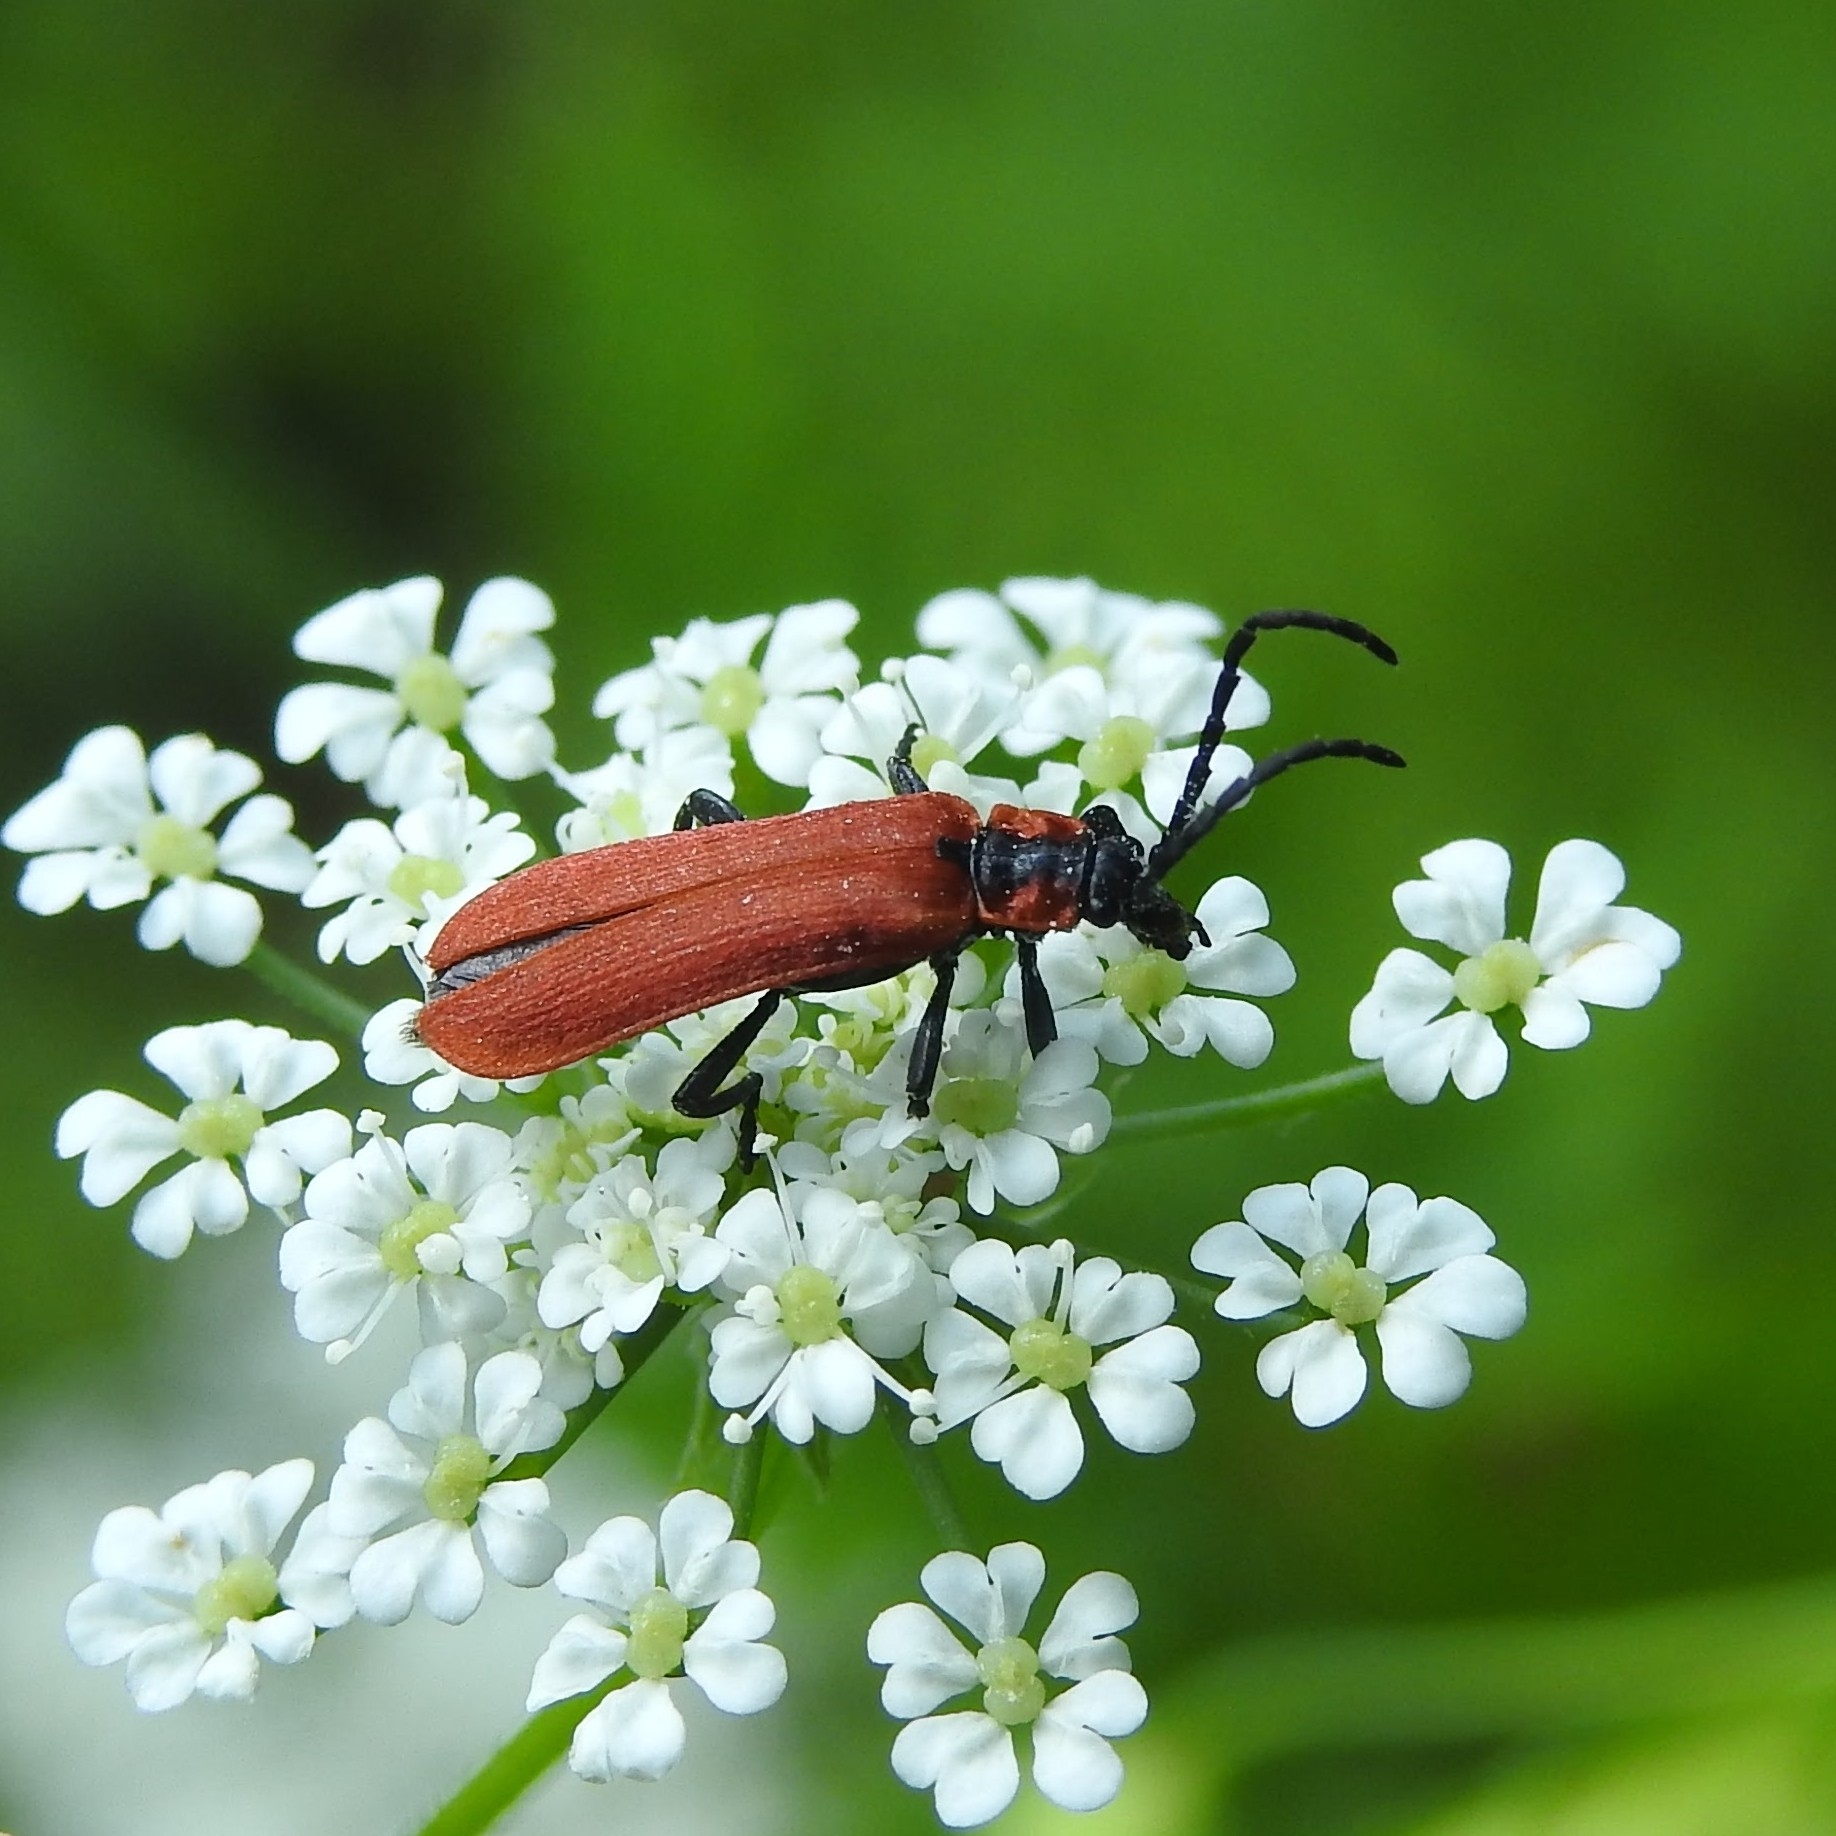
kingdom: Animalia
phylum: Arthropoda
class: Insecta
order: Coleoptera
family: Lycidae
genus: Lygistopterus
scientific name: Lygistopterus sanguineus
